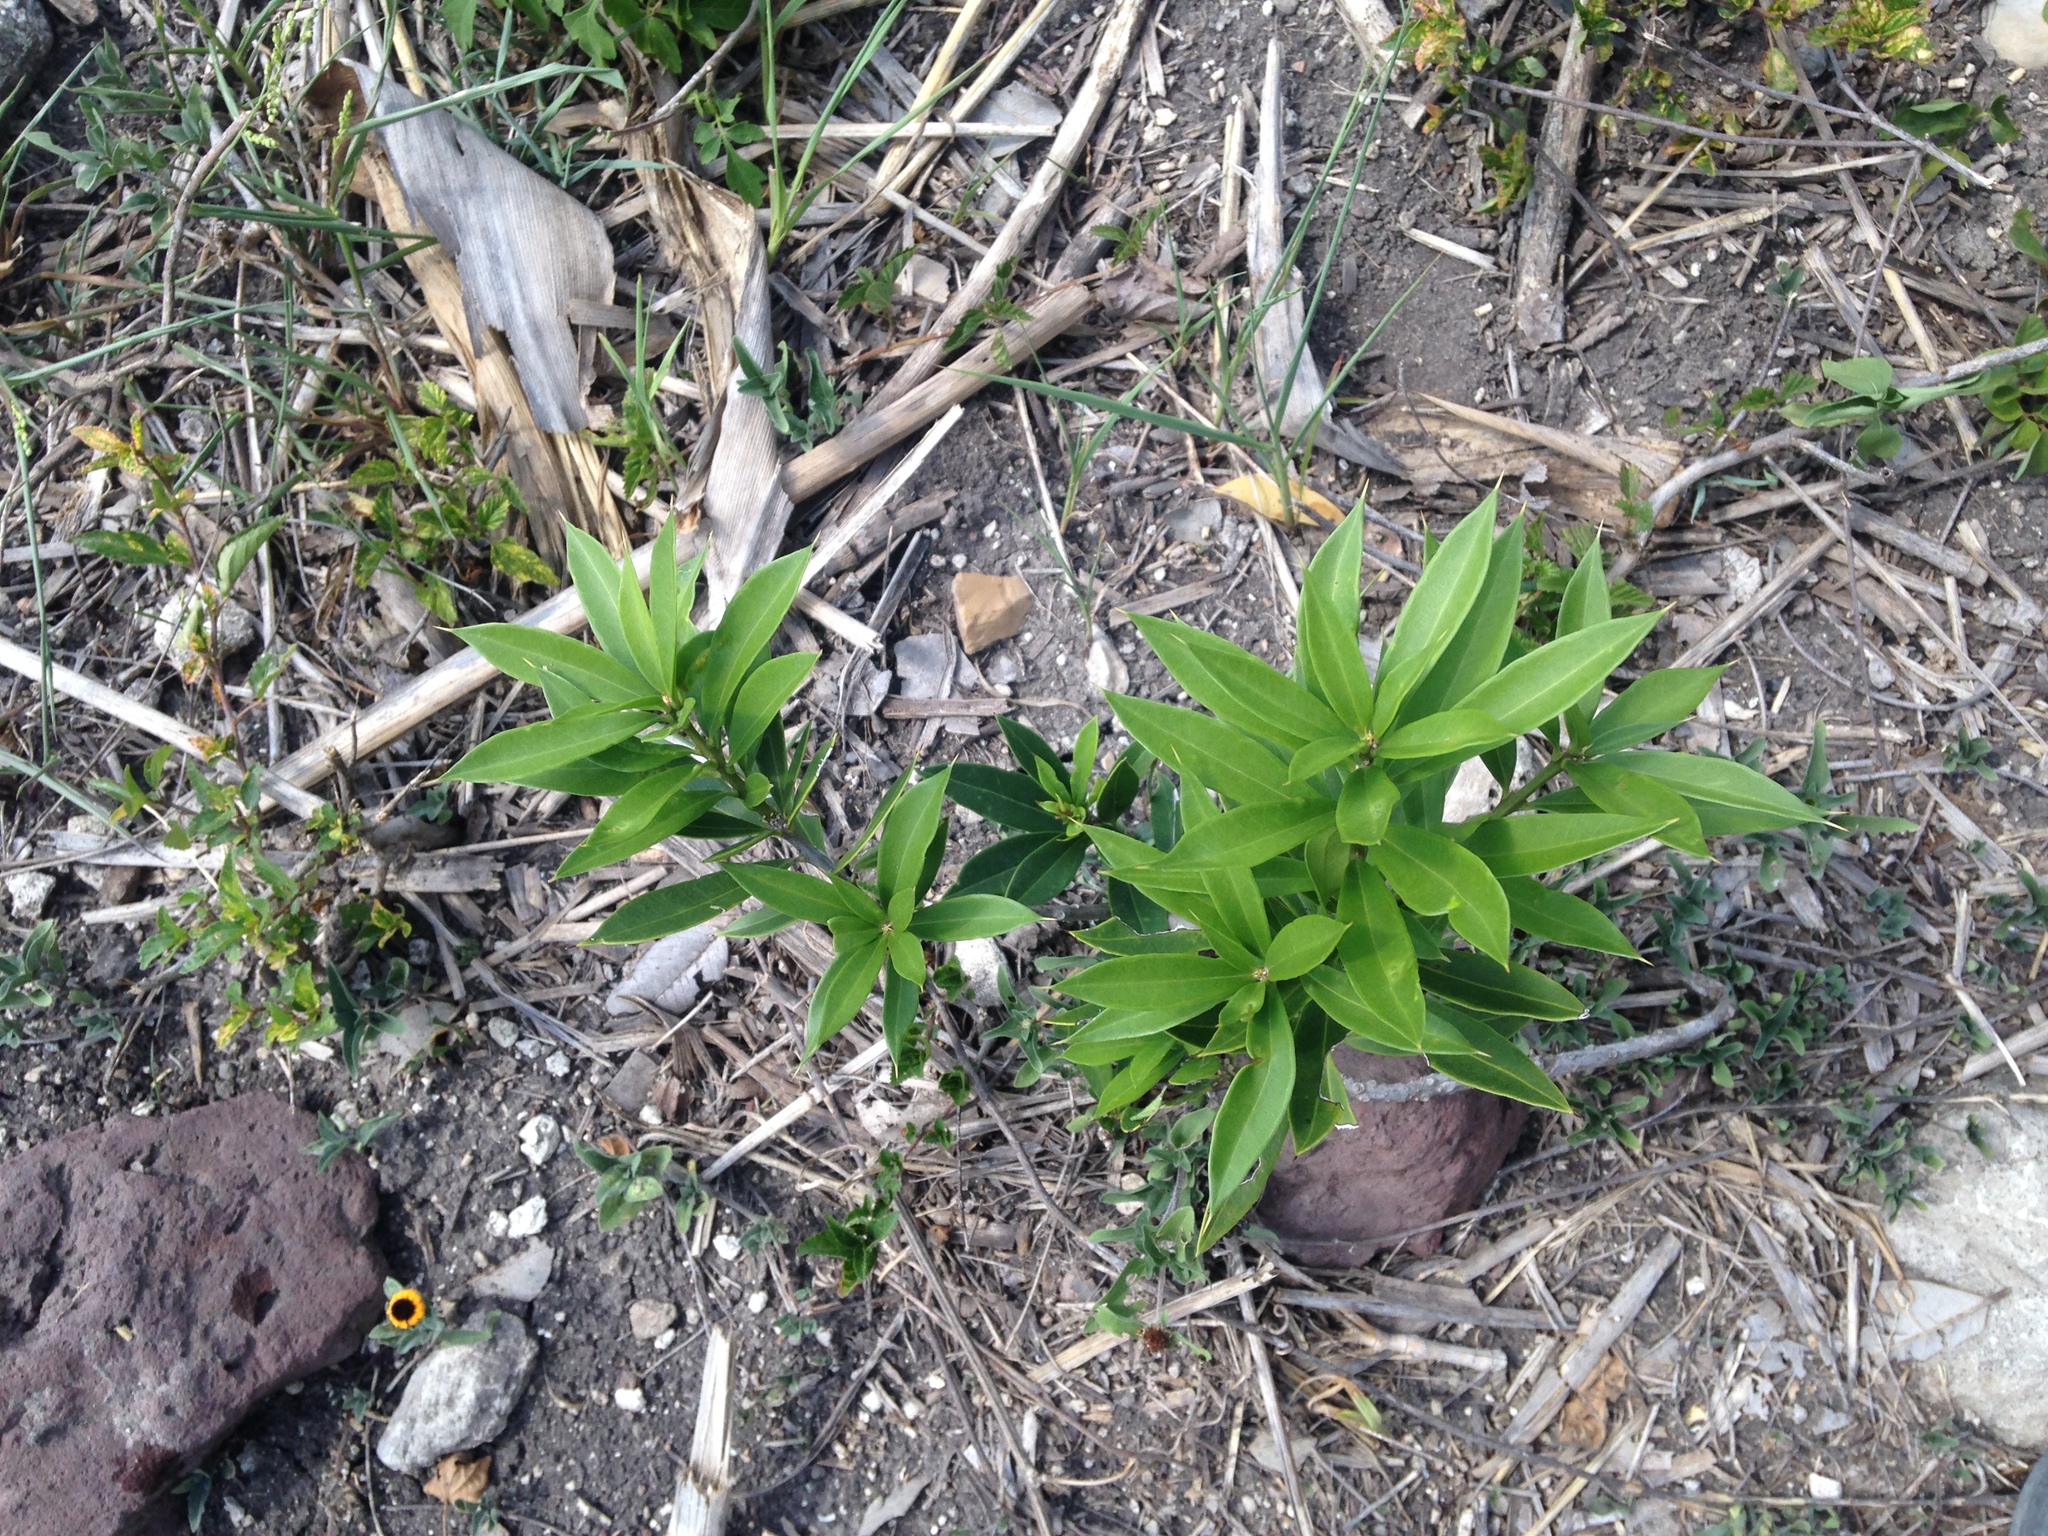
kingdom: Plantae
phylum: Tracheophyta
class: Magnoliopsida
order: Ericales
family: Primulaceae
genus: Bonellia
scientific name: Bonellia macrocarpa
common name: Primrose
